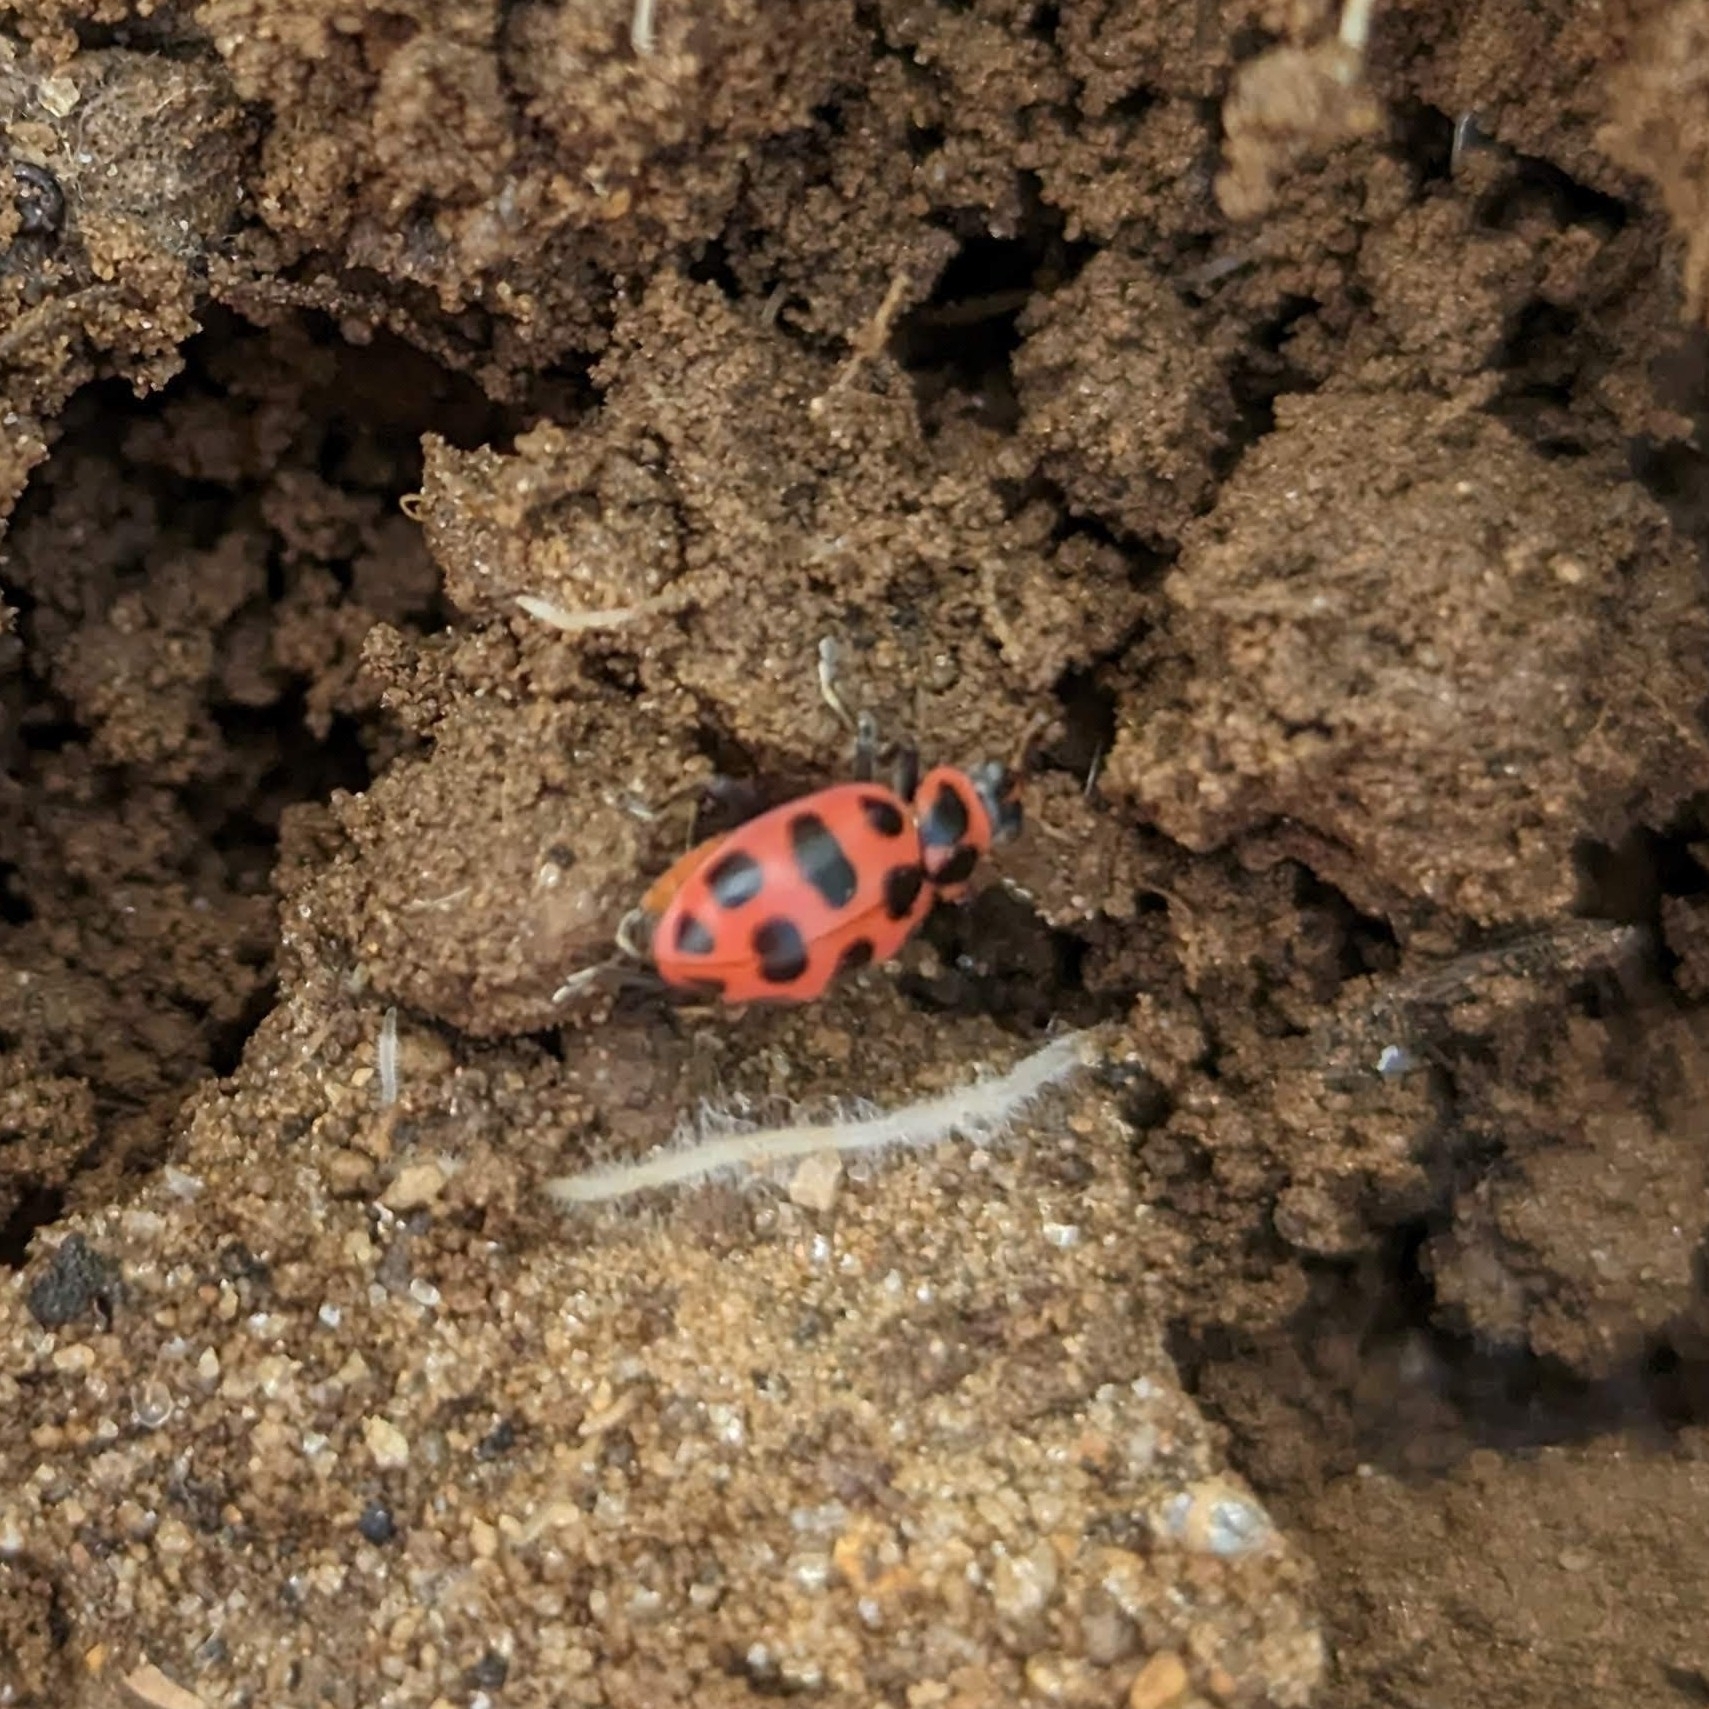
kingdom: Animalia
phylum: Arthropoda
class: Insecta
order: Coleoptera
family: Coccinellidae
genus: Coleomegilla
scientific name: Coleomegilla maculata
